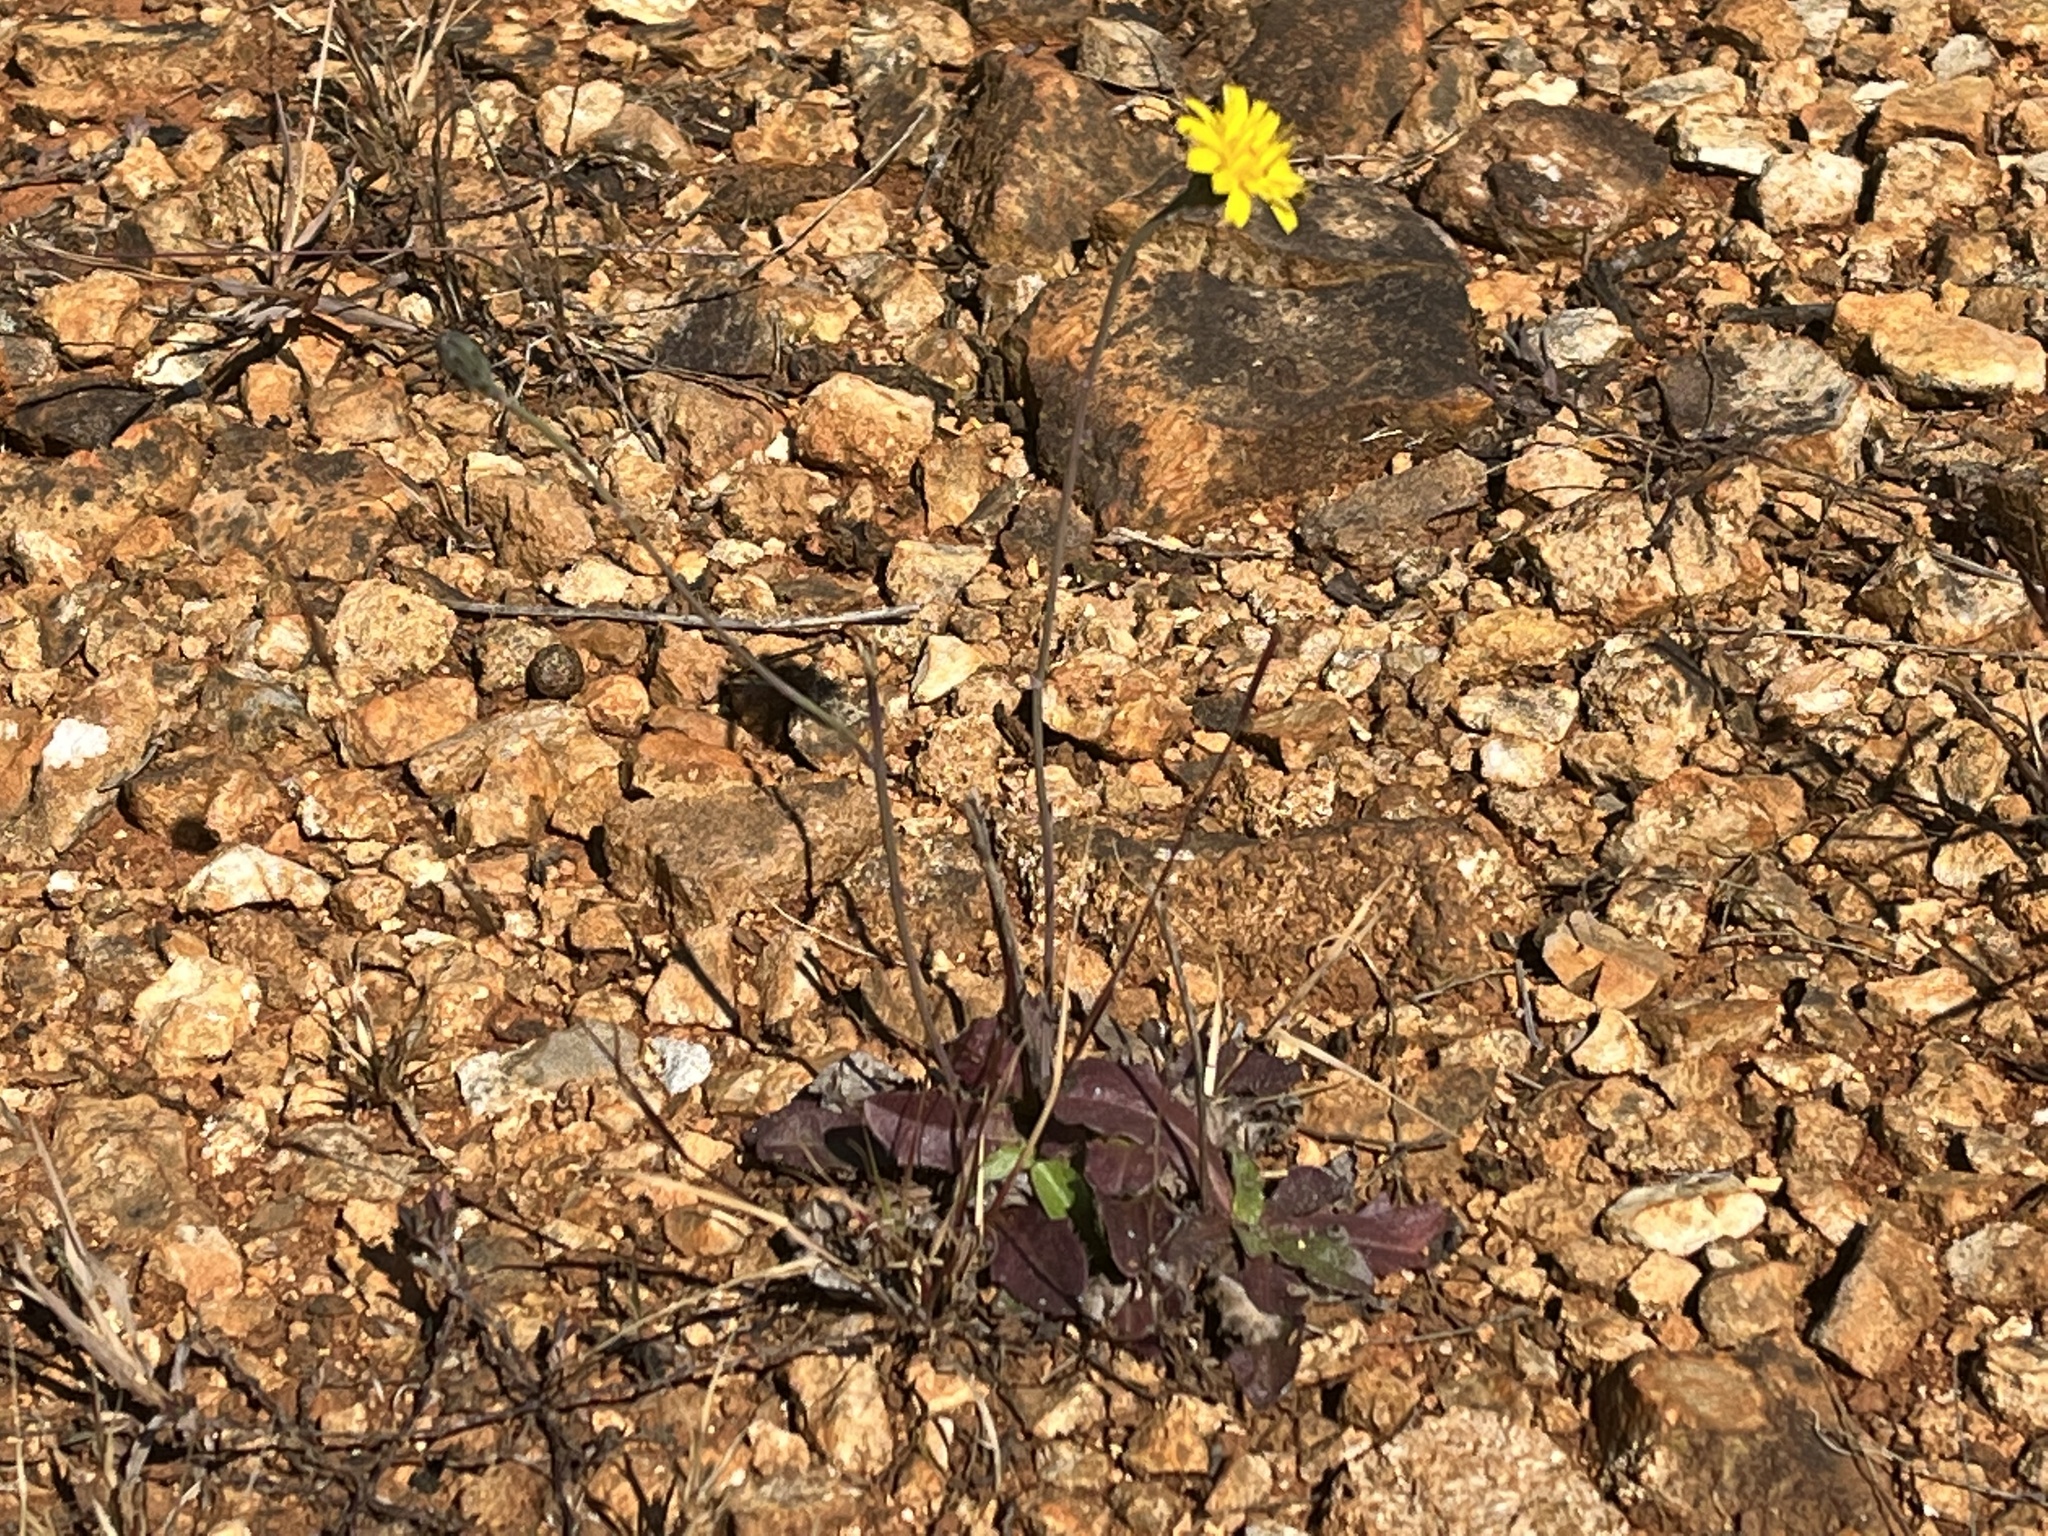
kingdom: Plantae
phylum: Tracheophyta
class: Magnoliopsida
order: Asterales
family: Asteraceae
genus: Hypochaeris
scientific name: Hypochaeris radicata
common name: Flatweed
